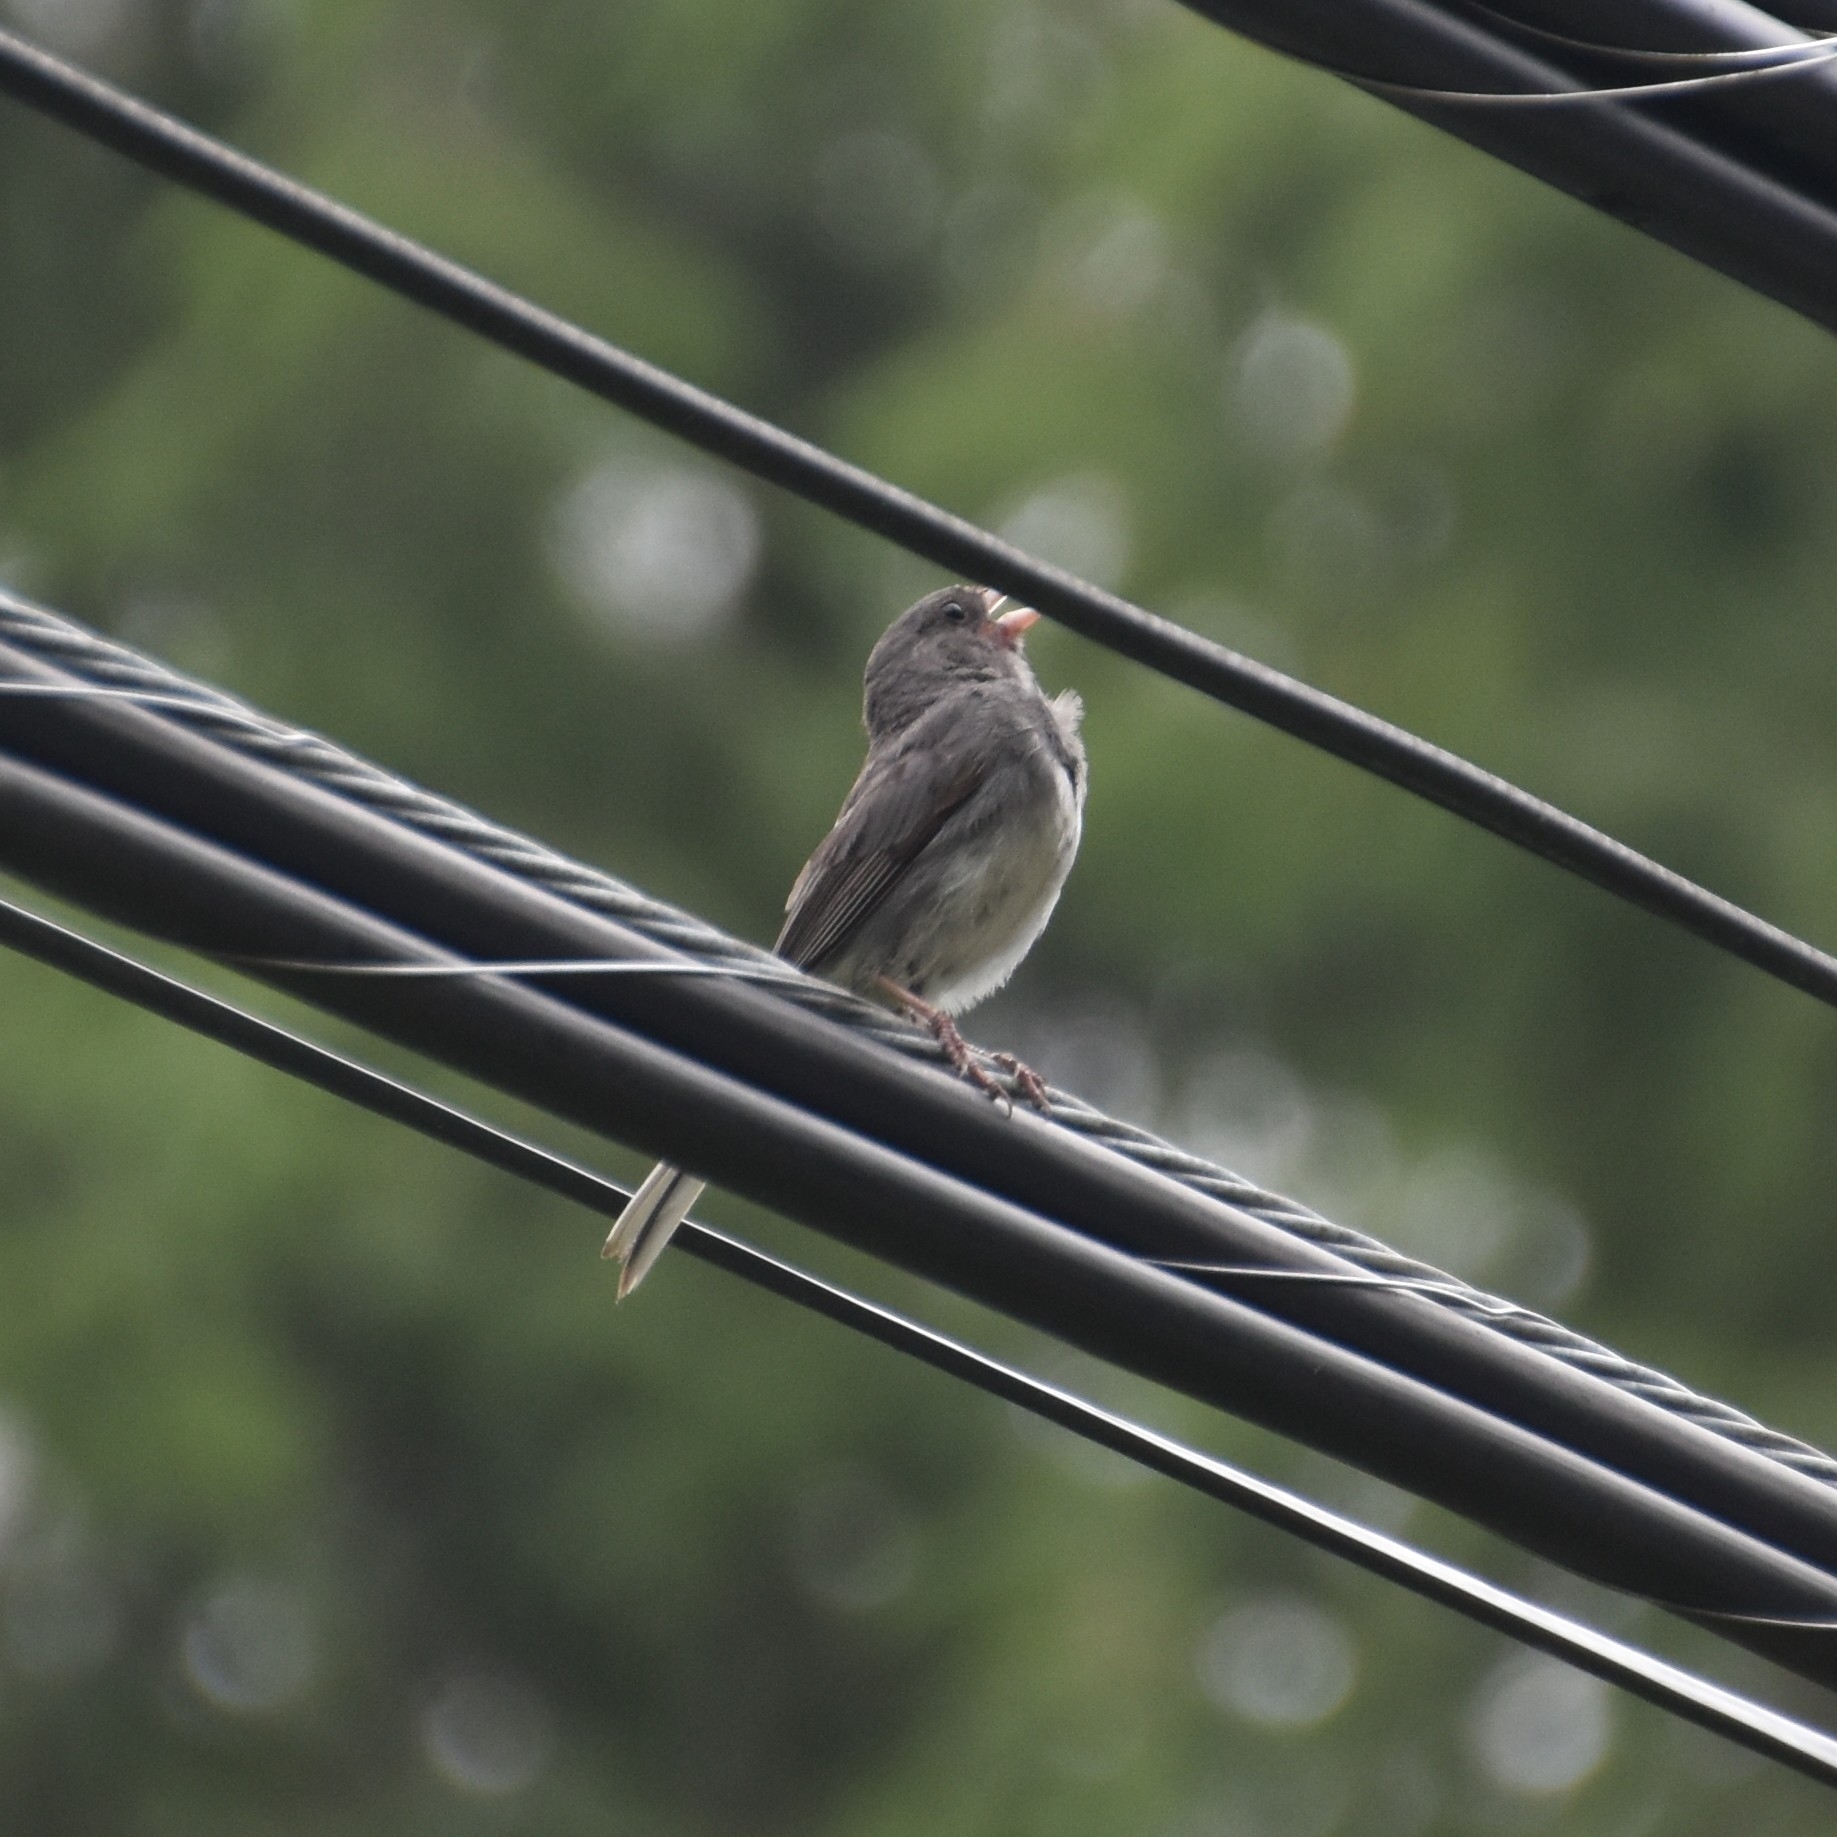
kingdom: Animalia
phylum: Chordata
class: Aves
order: Passeriformes
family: Passerellidae
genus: Junco
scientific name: Junco hyemalis
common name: Dark-eyed junco
